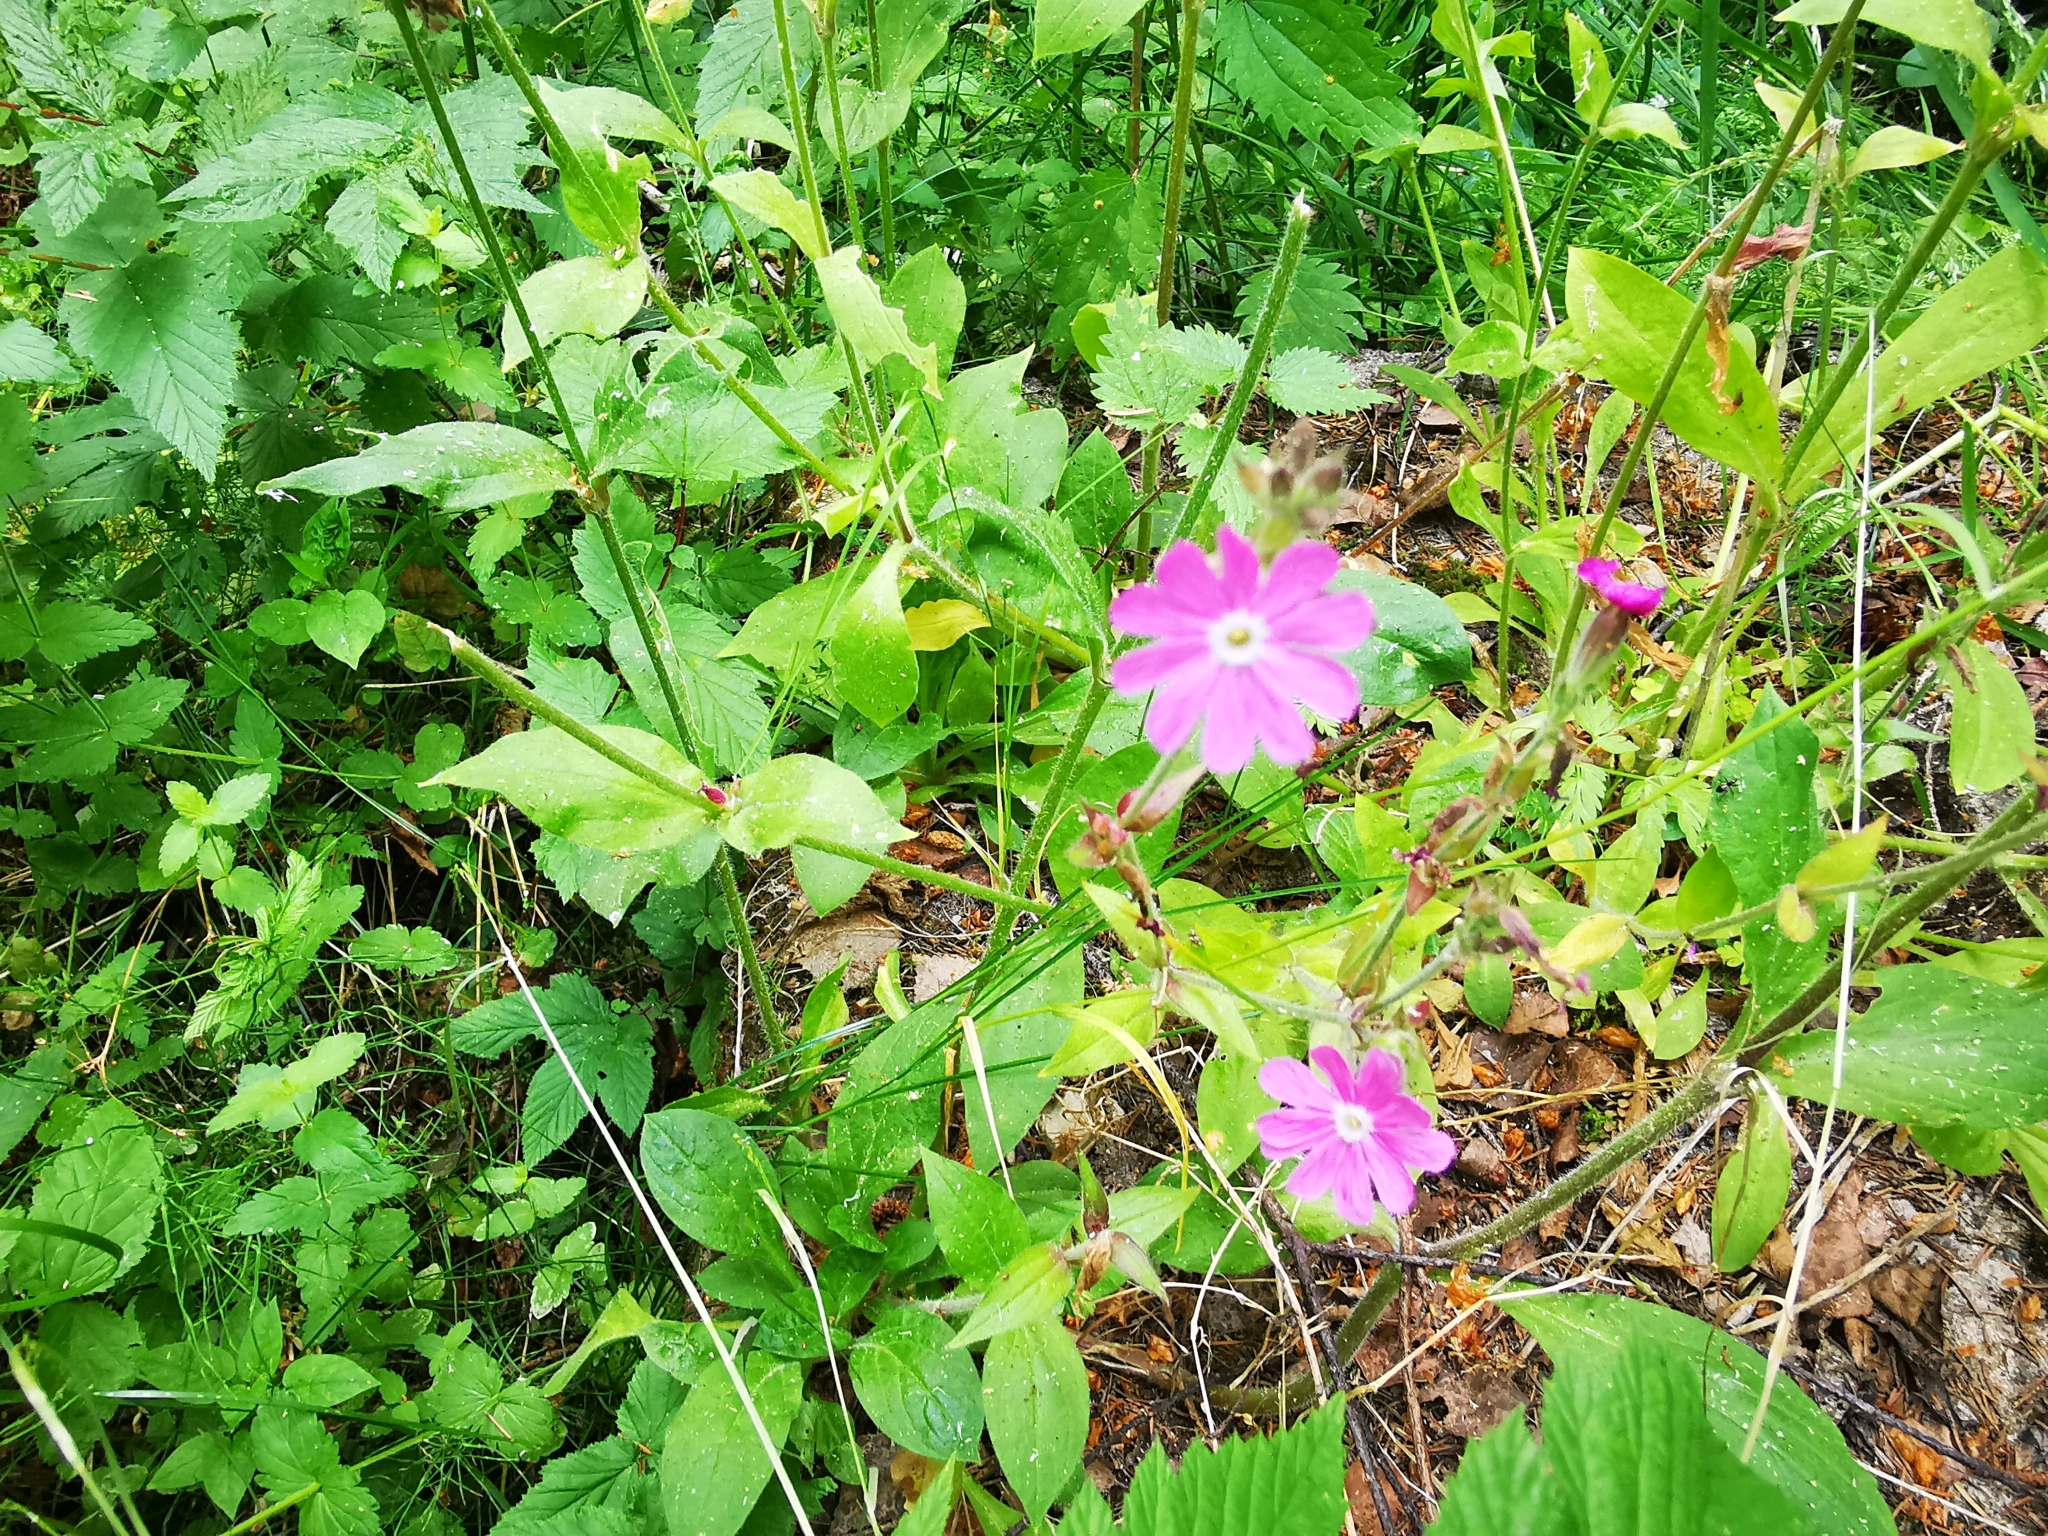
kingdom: Plantae
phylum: Tracheophyta
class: Magnoliopsida
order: Caryophyllales
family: Caryophyllaceae
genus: Silene
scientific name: Silene dioica
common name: Red campion
